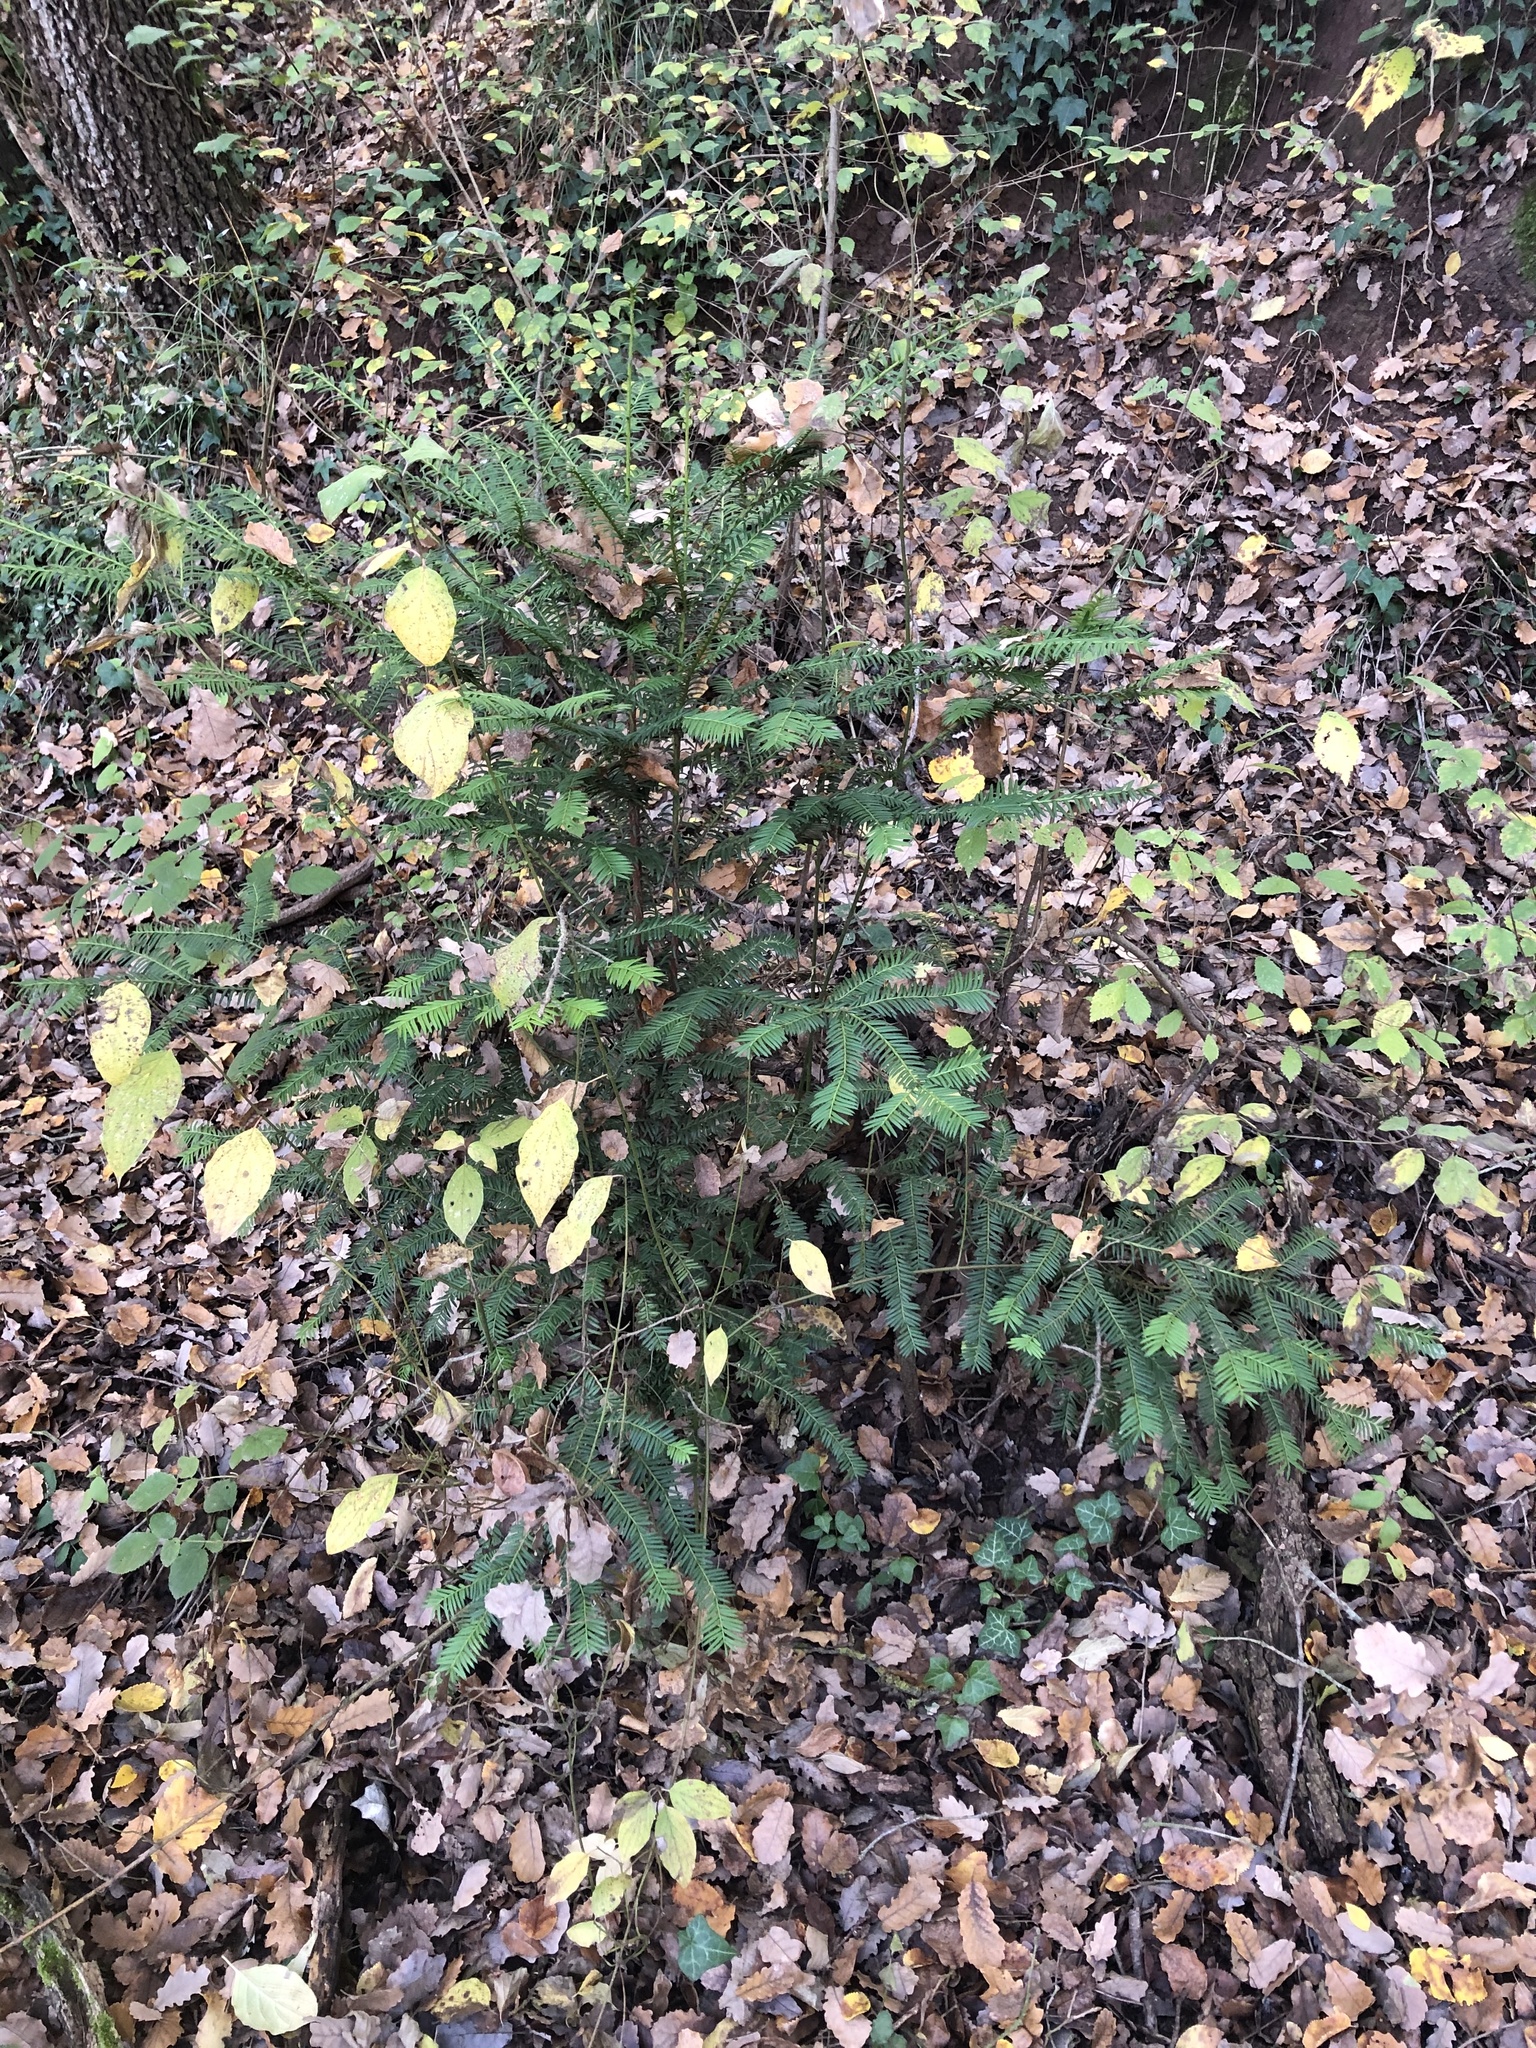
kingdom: Plantae
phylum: Tracheophyta
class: Pinopsida
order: Pinales
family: Taxaceae
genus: Taxus
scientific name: Taxus baccata
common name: Yew
